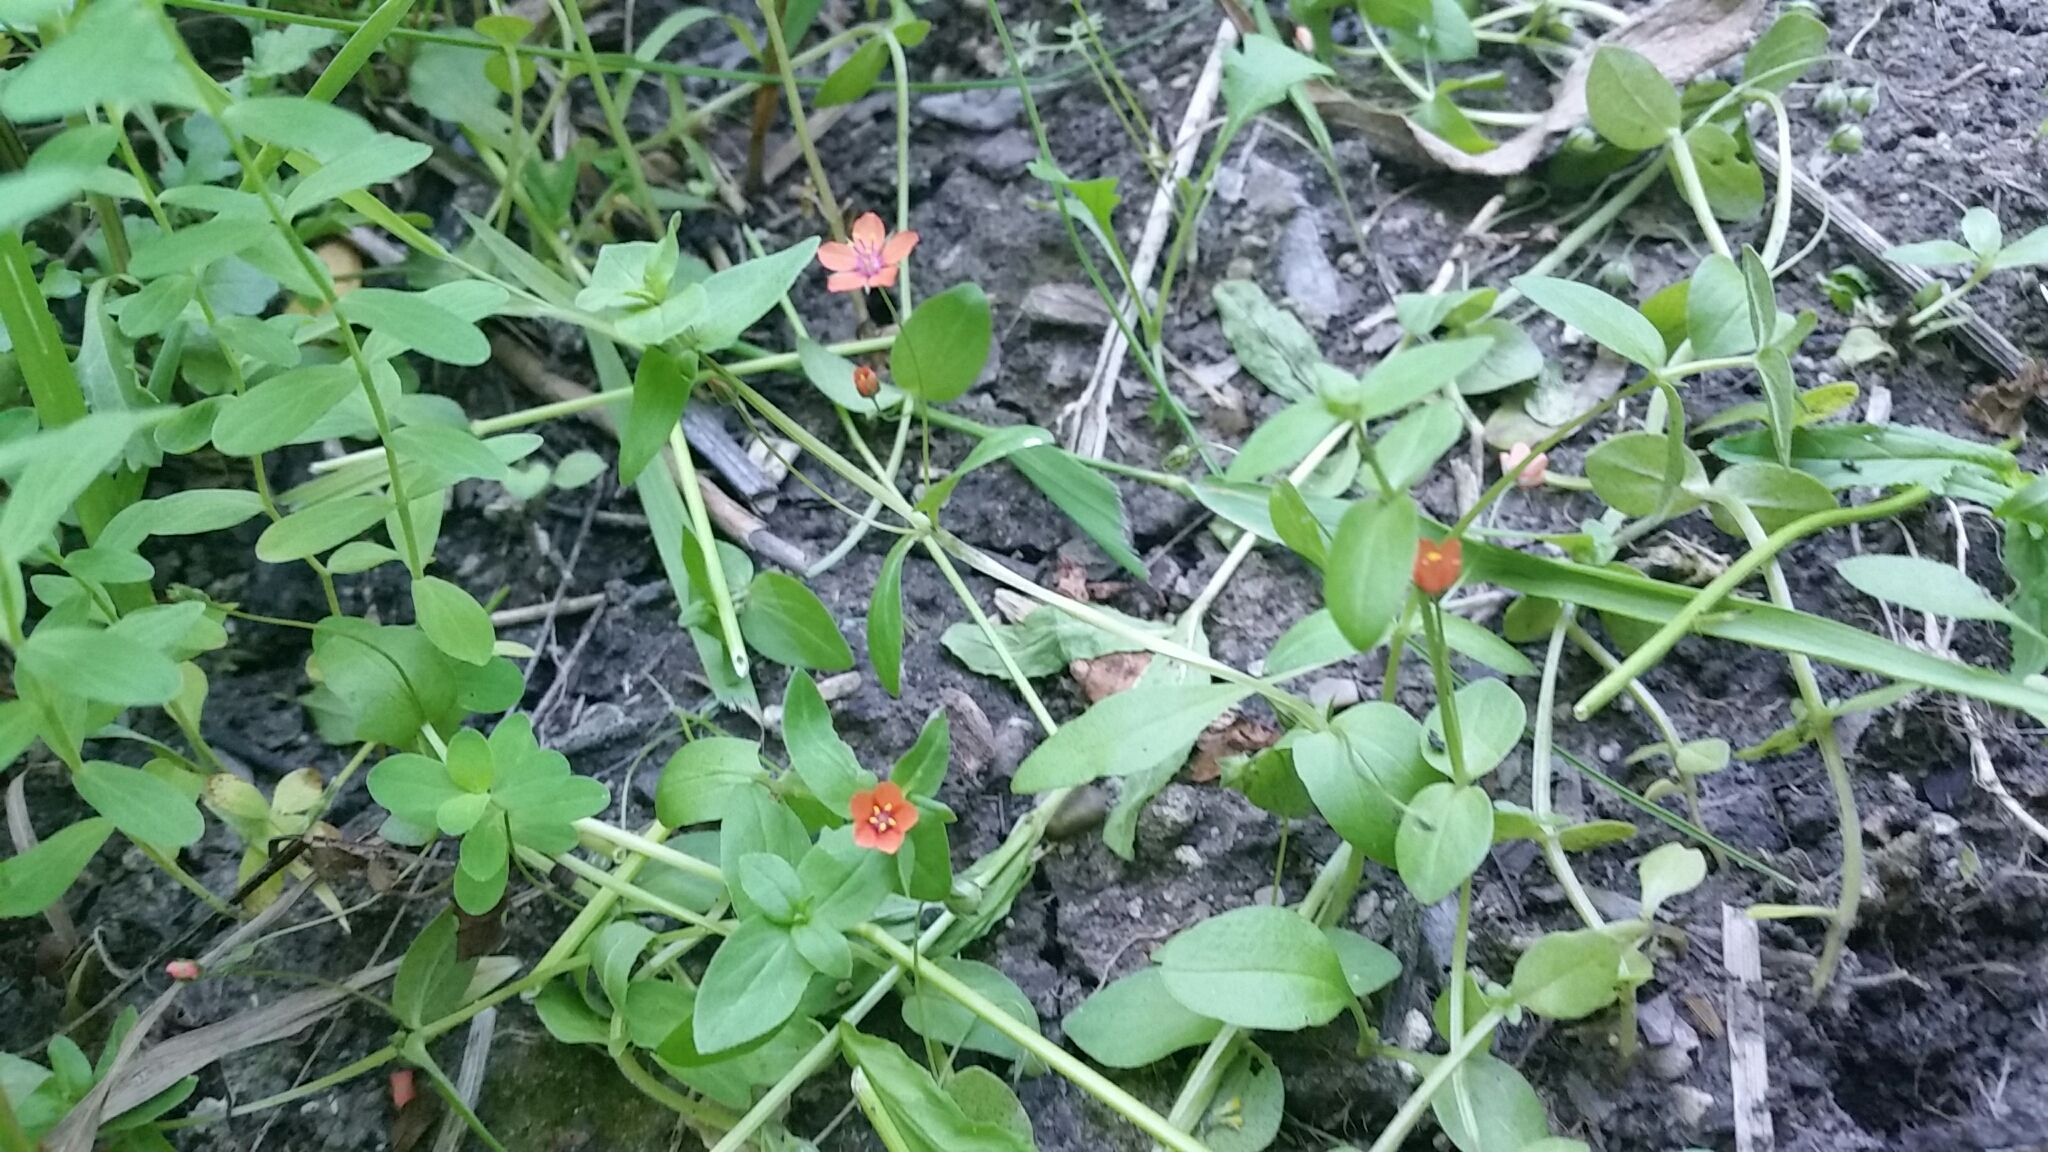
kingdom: Plantae
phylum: Tracheophyta
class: Magnoliopsida
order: Ericales
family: Primulaceae
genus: Lysimachia
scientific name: Lysimachia arvensis
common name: Scarlet pimpernel
